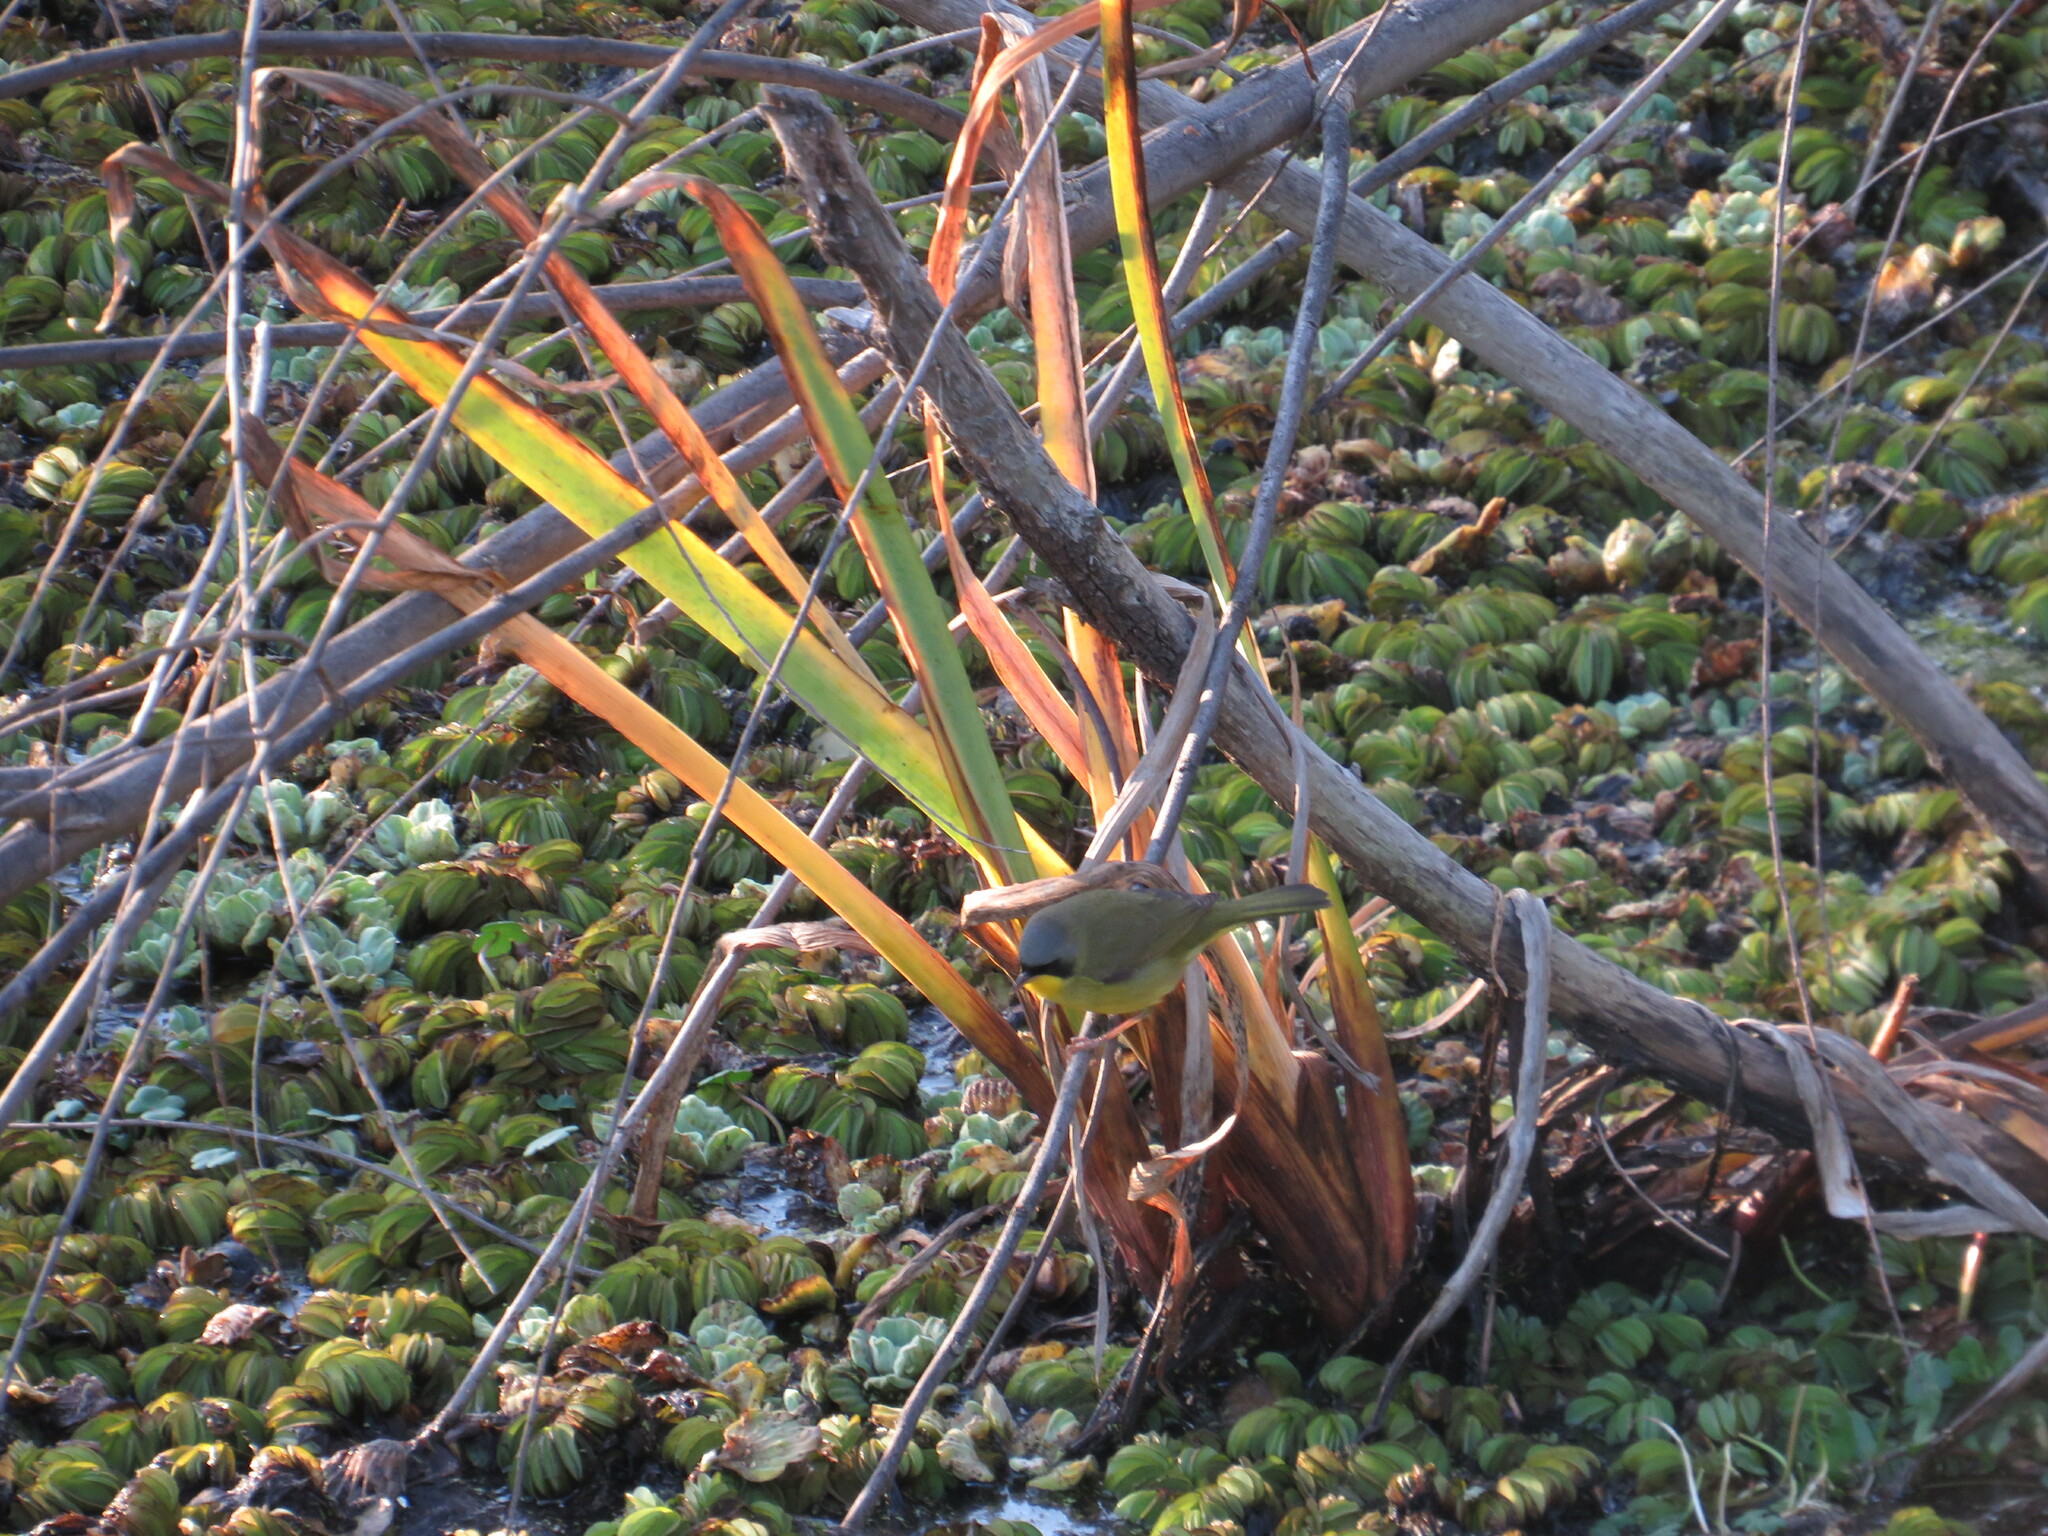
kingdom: Animalia
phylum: Chordata
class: Aves
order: Passeriformes
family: Parulidae
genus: Geothlypis
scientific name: Geothlypis velata
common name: Southern yellowthroat
